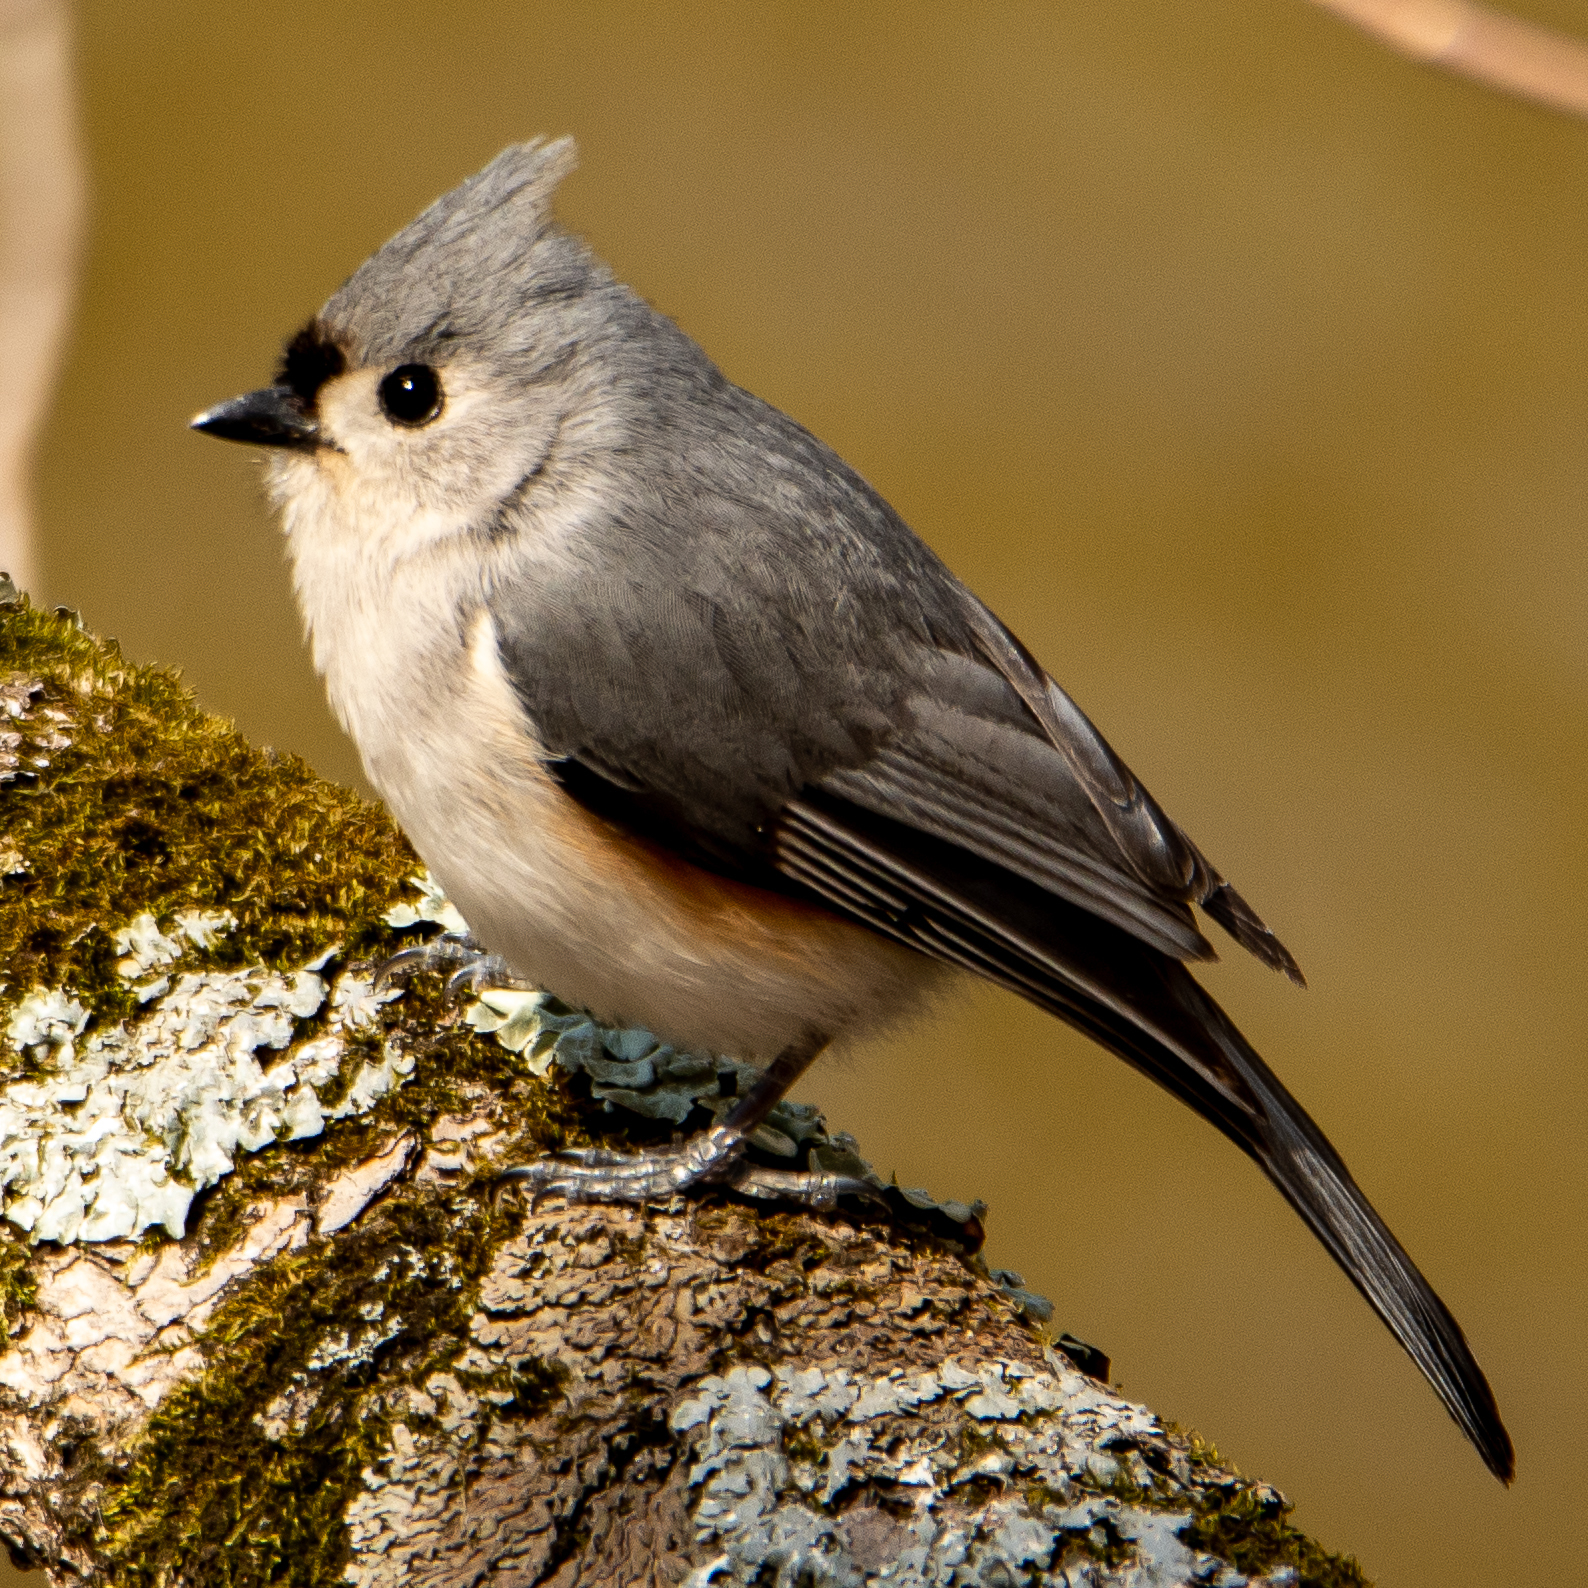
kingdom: Animalia
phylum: Chordata
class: Aves
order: Passeriformes
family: Paridae
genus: Baeolophus
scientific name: Baeolophus bicolor
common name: Tufted titmouse
